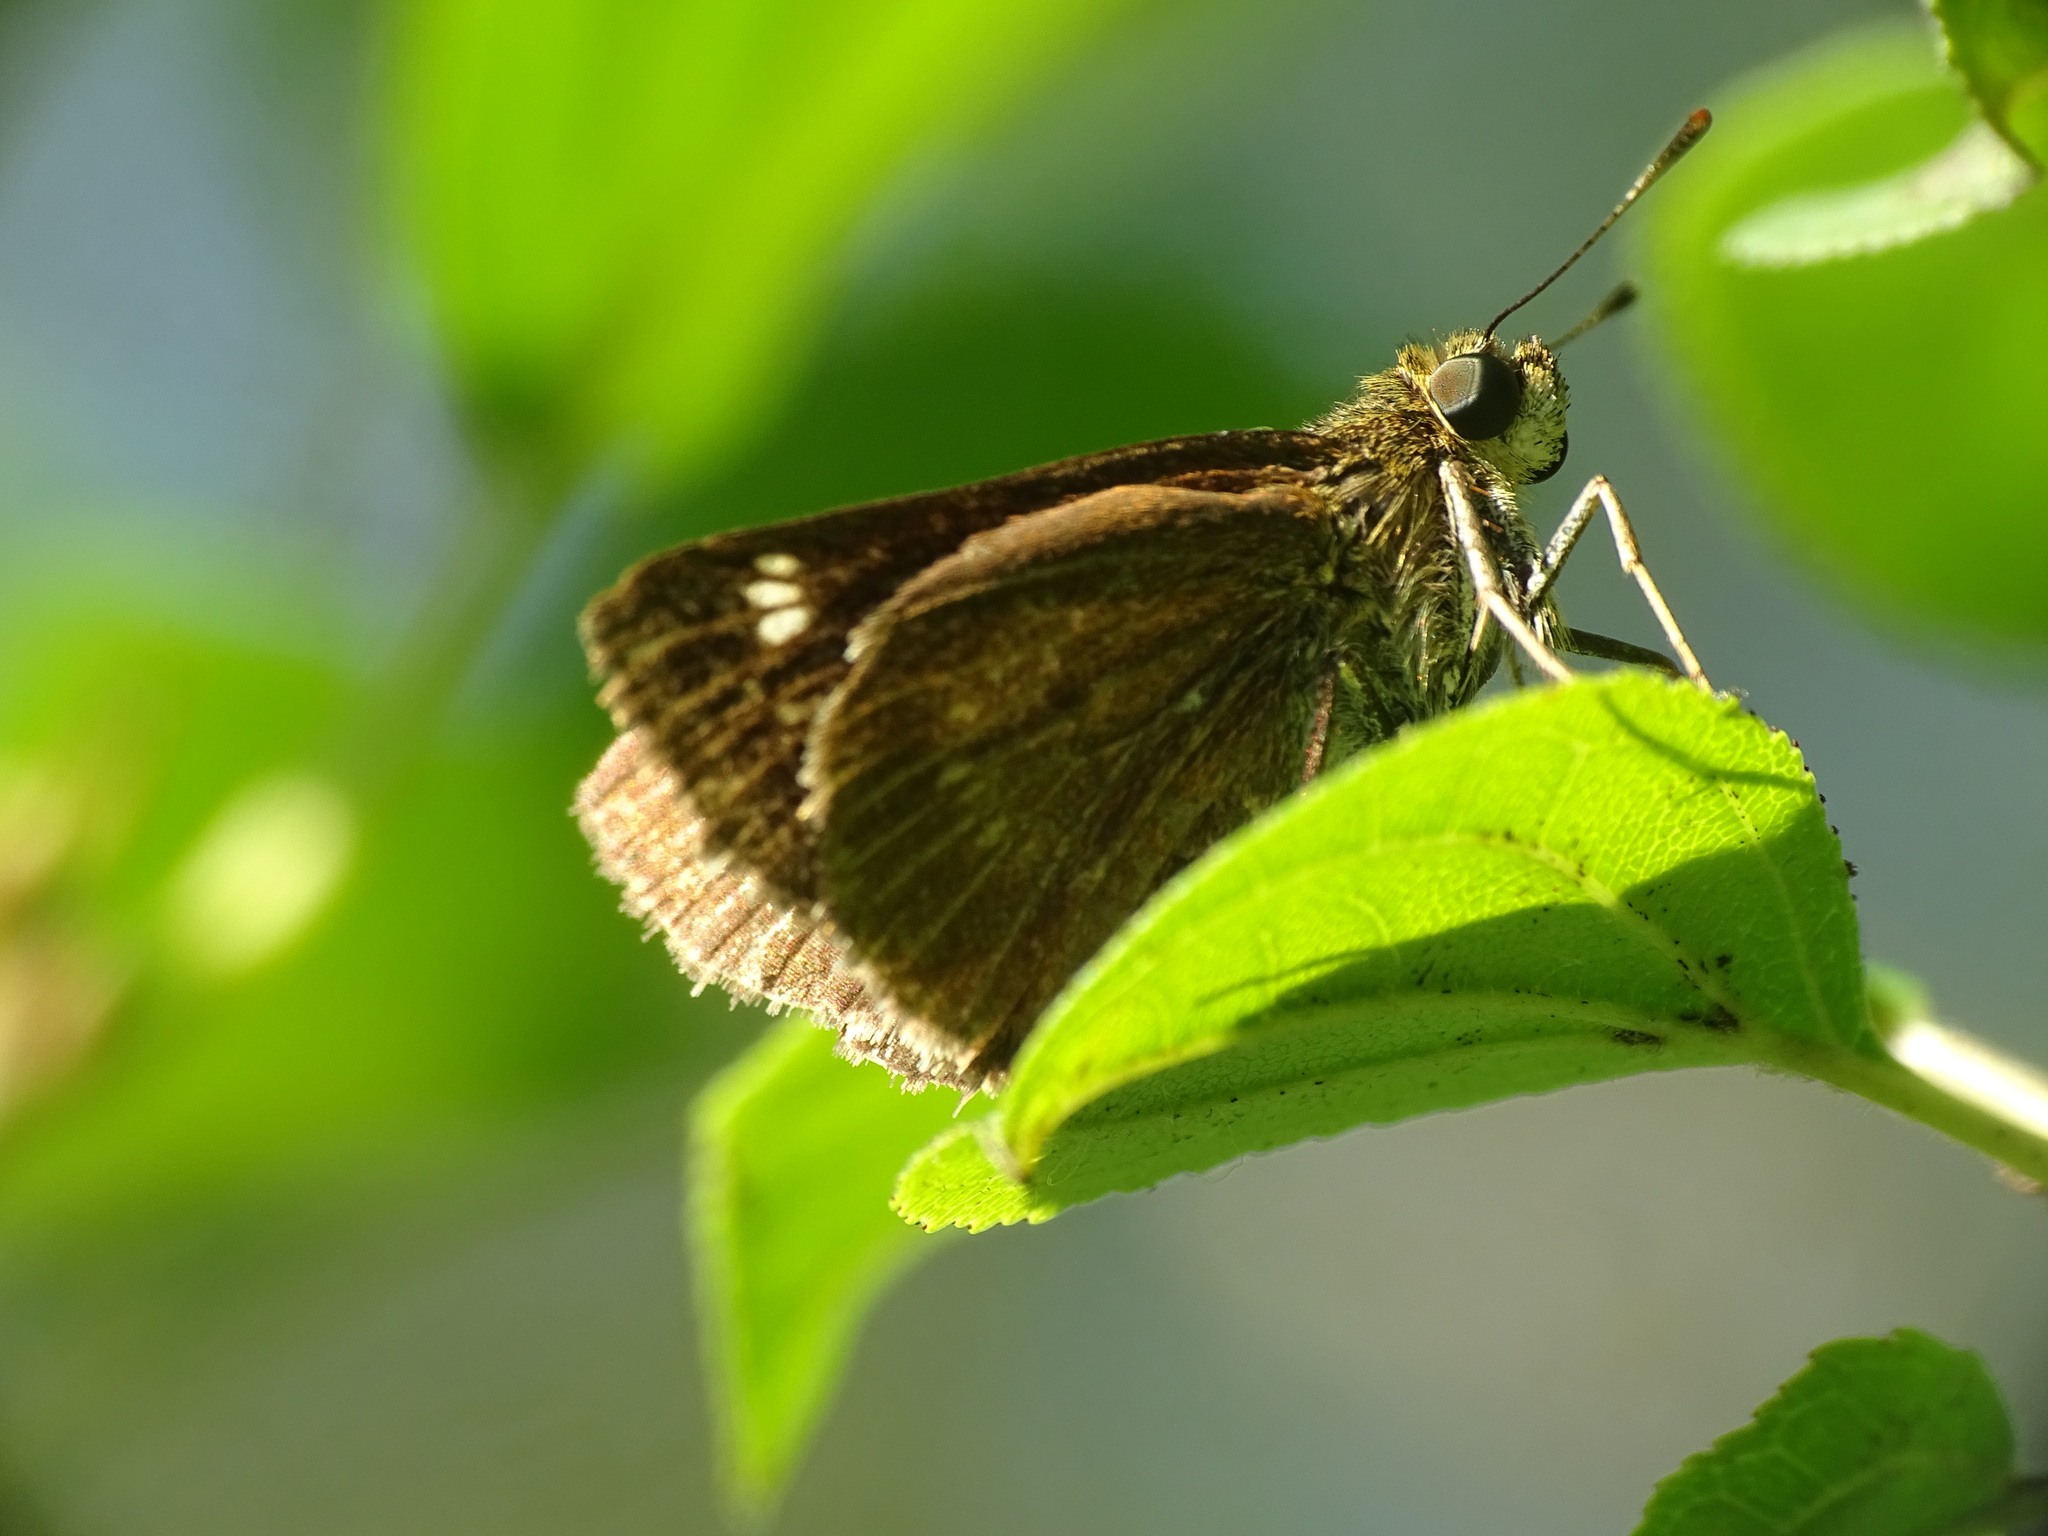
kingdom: Animalia
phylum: Arthropoda
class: Insecta
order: Lepidoptera
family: Hesperiidae
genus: Vernia
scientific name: Vernia verna
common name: Little glassywing
